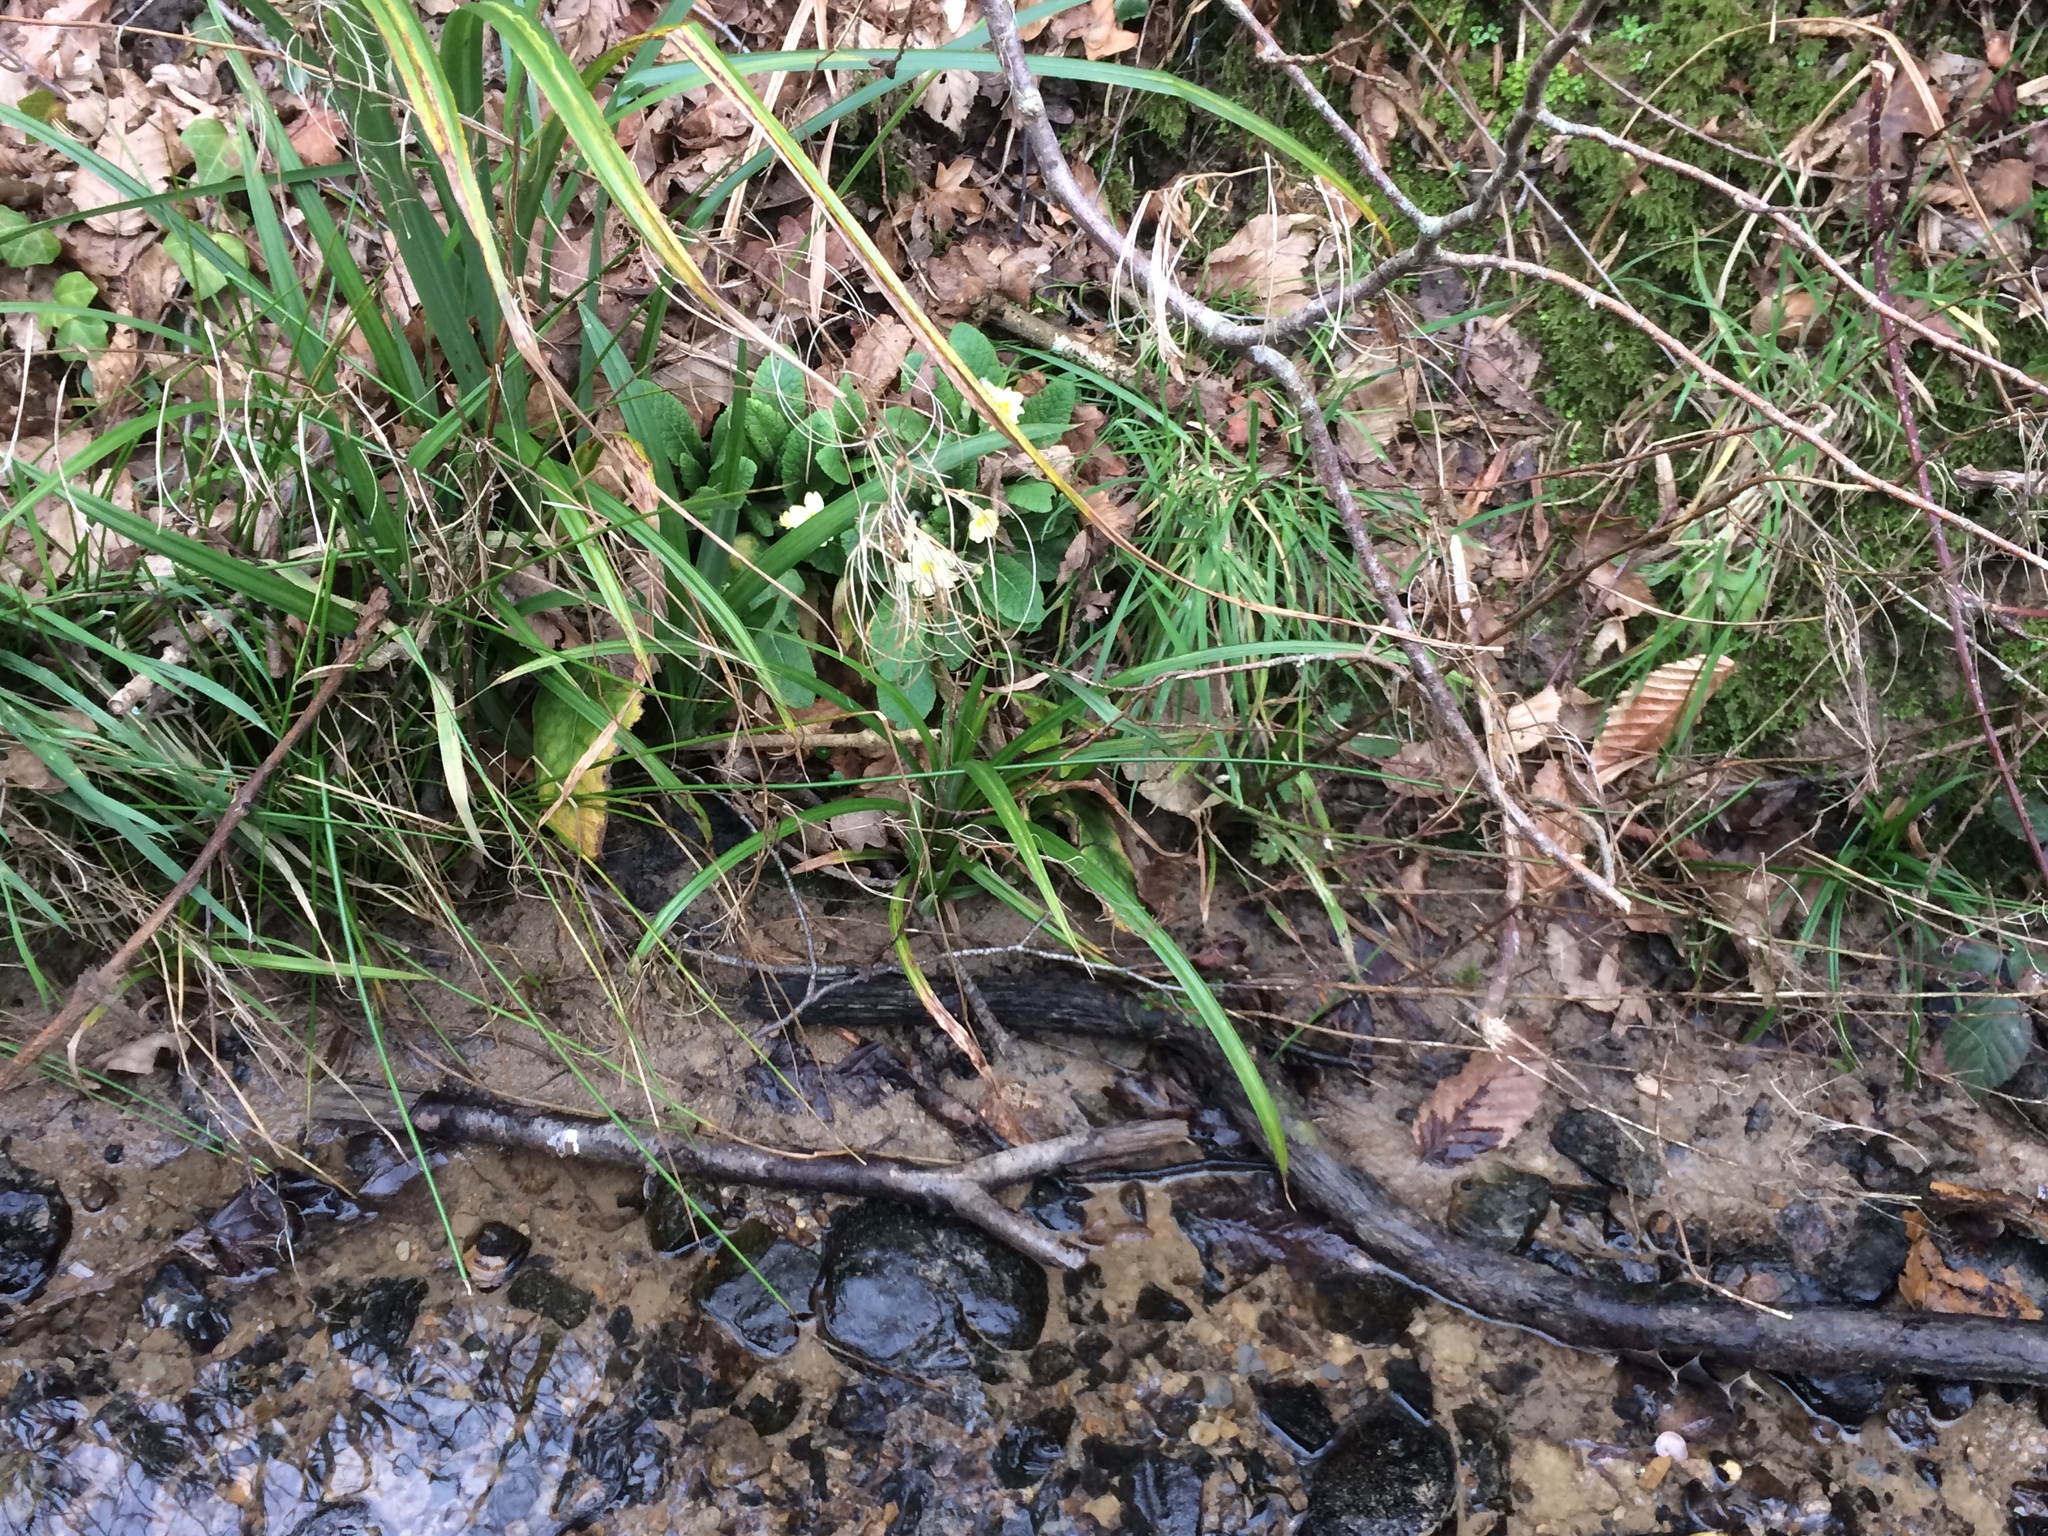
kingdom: Plantae
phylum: Tracheophyta
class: Magnoliopsida
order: Ericales
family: Primulaceae
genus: Primula
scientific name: Primula vulgaris
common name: Primrose
